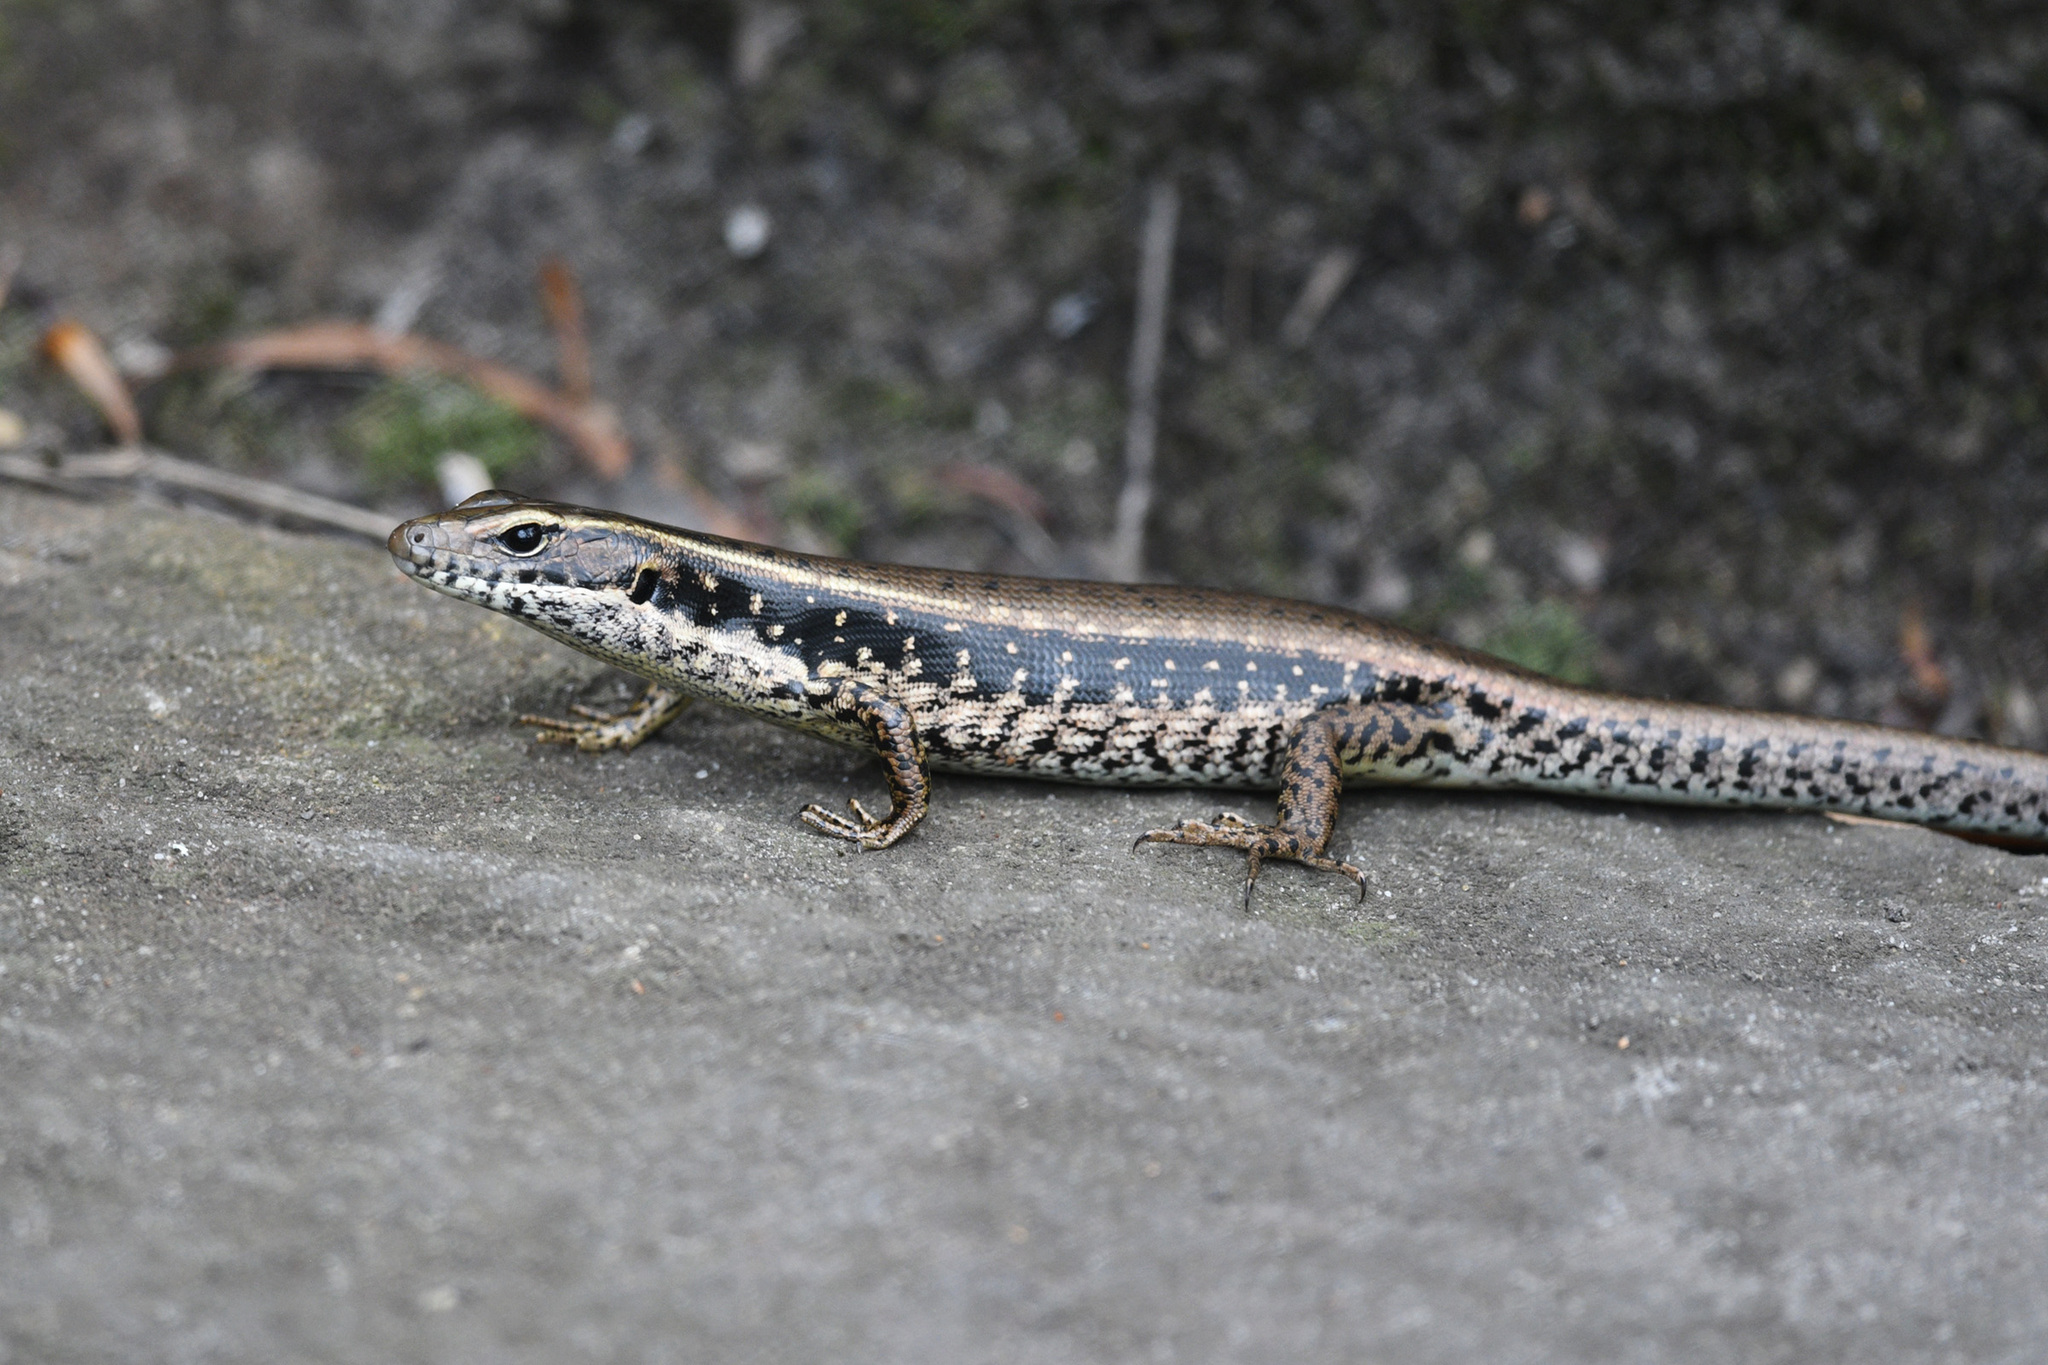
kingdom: Animalia
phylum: Chordata
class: Squamata
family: Scincidae
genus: Eulamprus
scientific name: Eulamprus quoyii
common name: Eastern water skink
